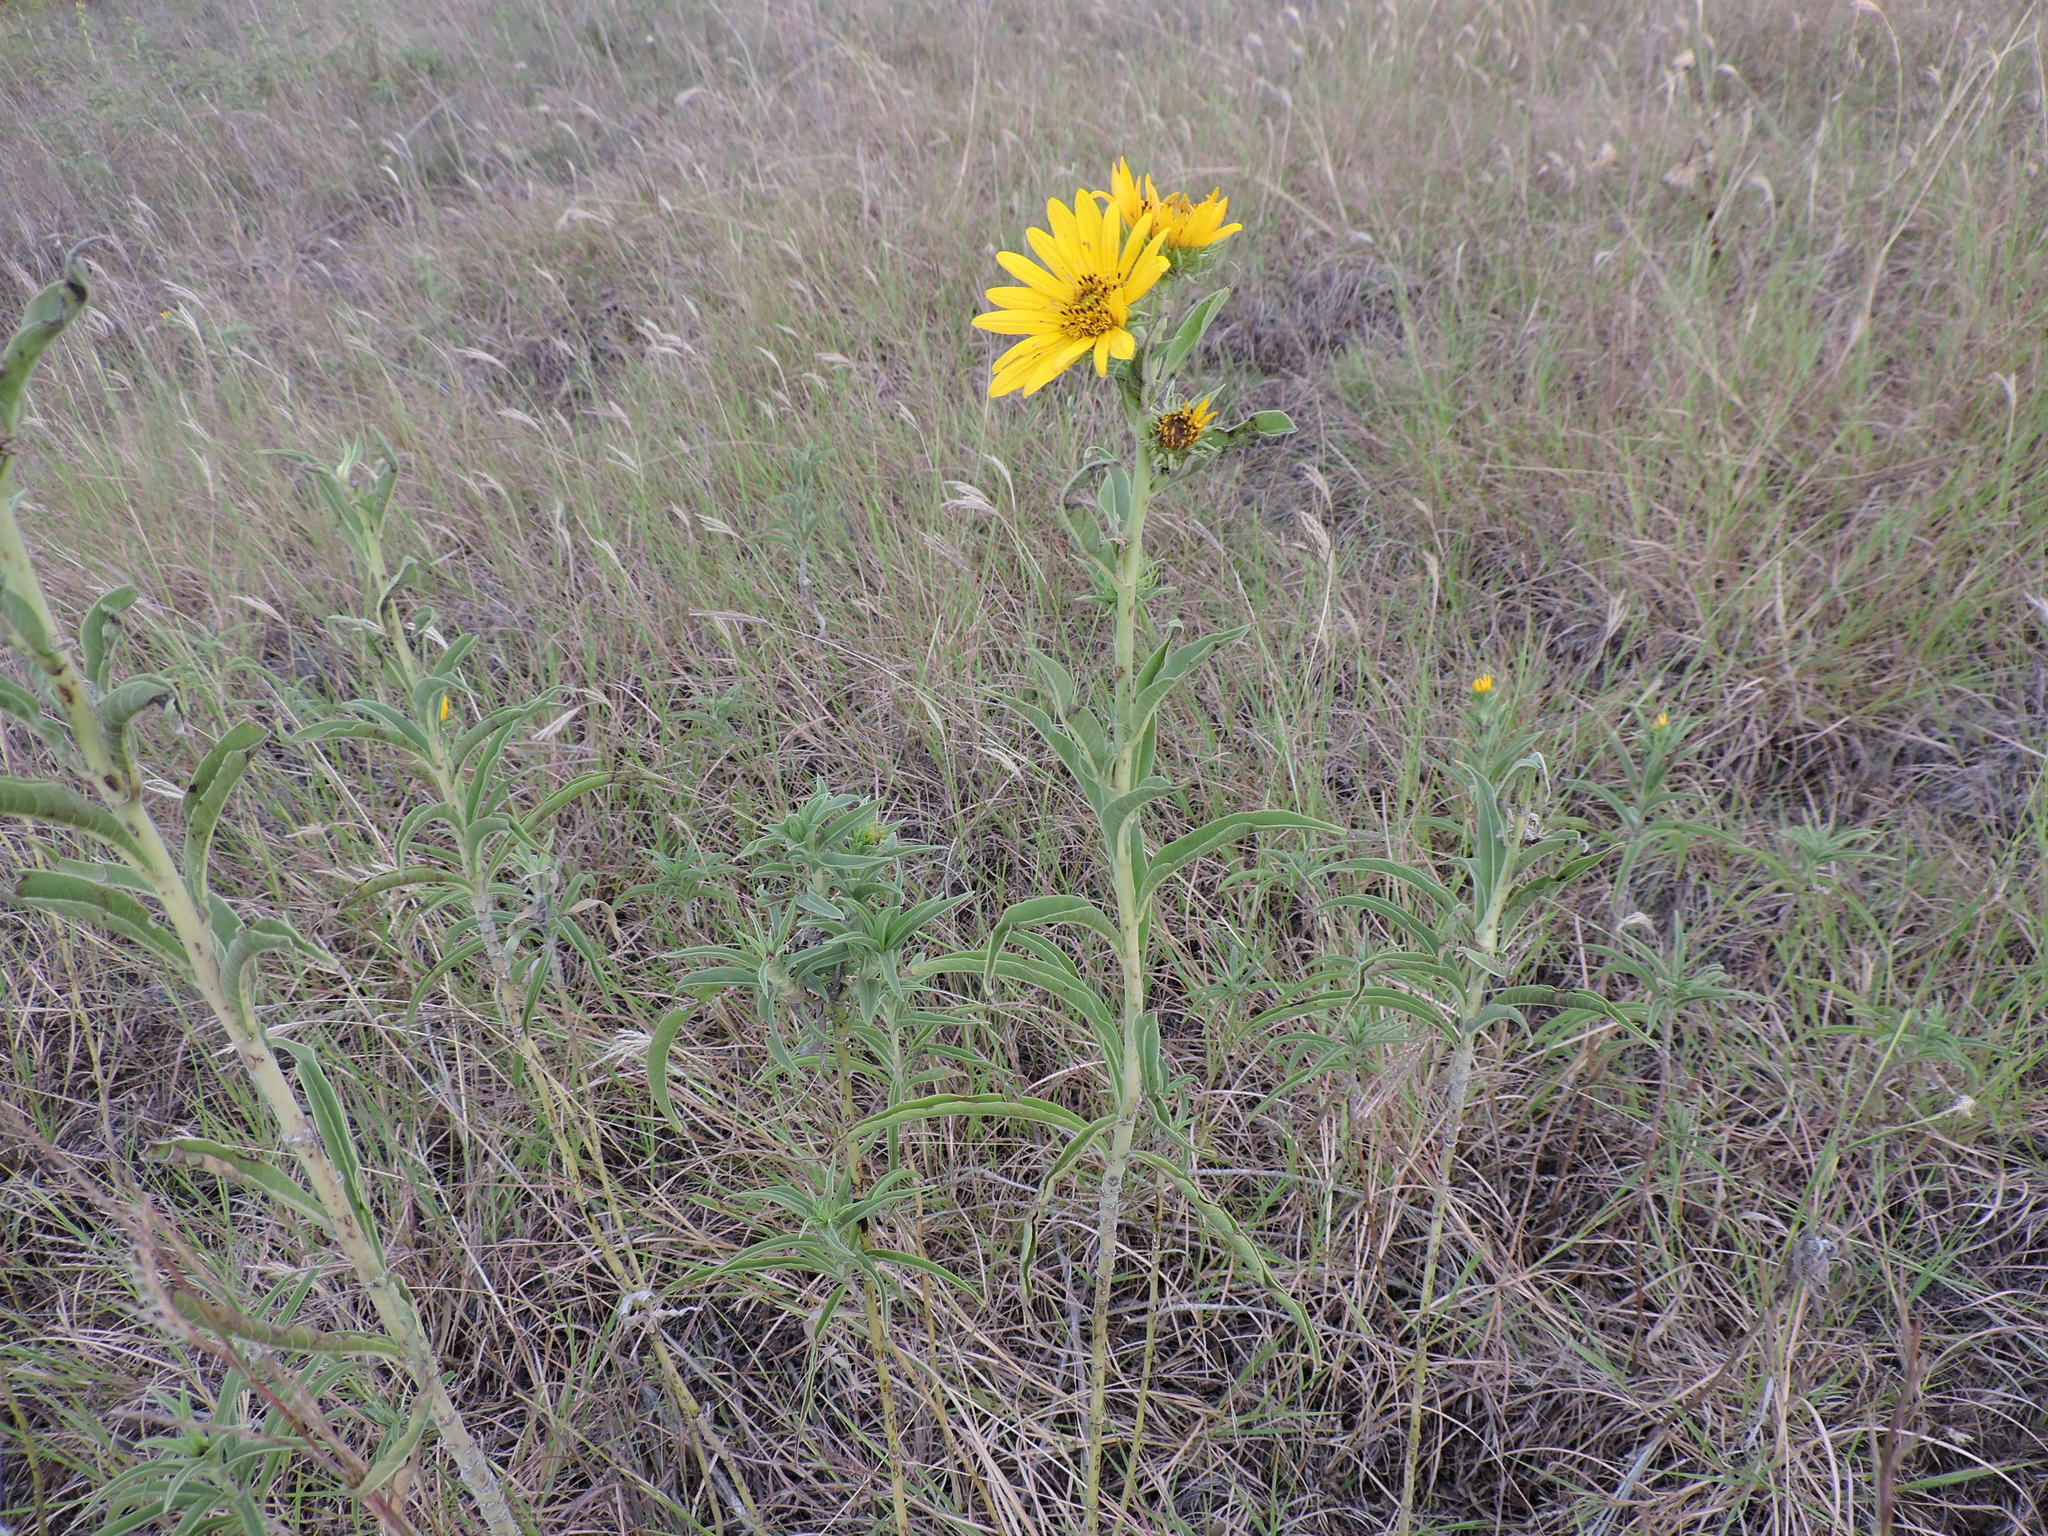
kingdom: Plantae
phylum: Tracheophyta
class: Magnoliopsida
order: Asterales
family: Asteraceae
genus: Helianthus
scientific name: Helianthus maximiliani
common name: Maximilian's sunflower
